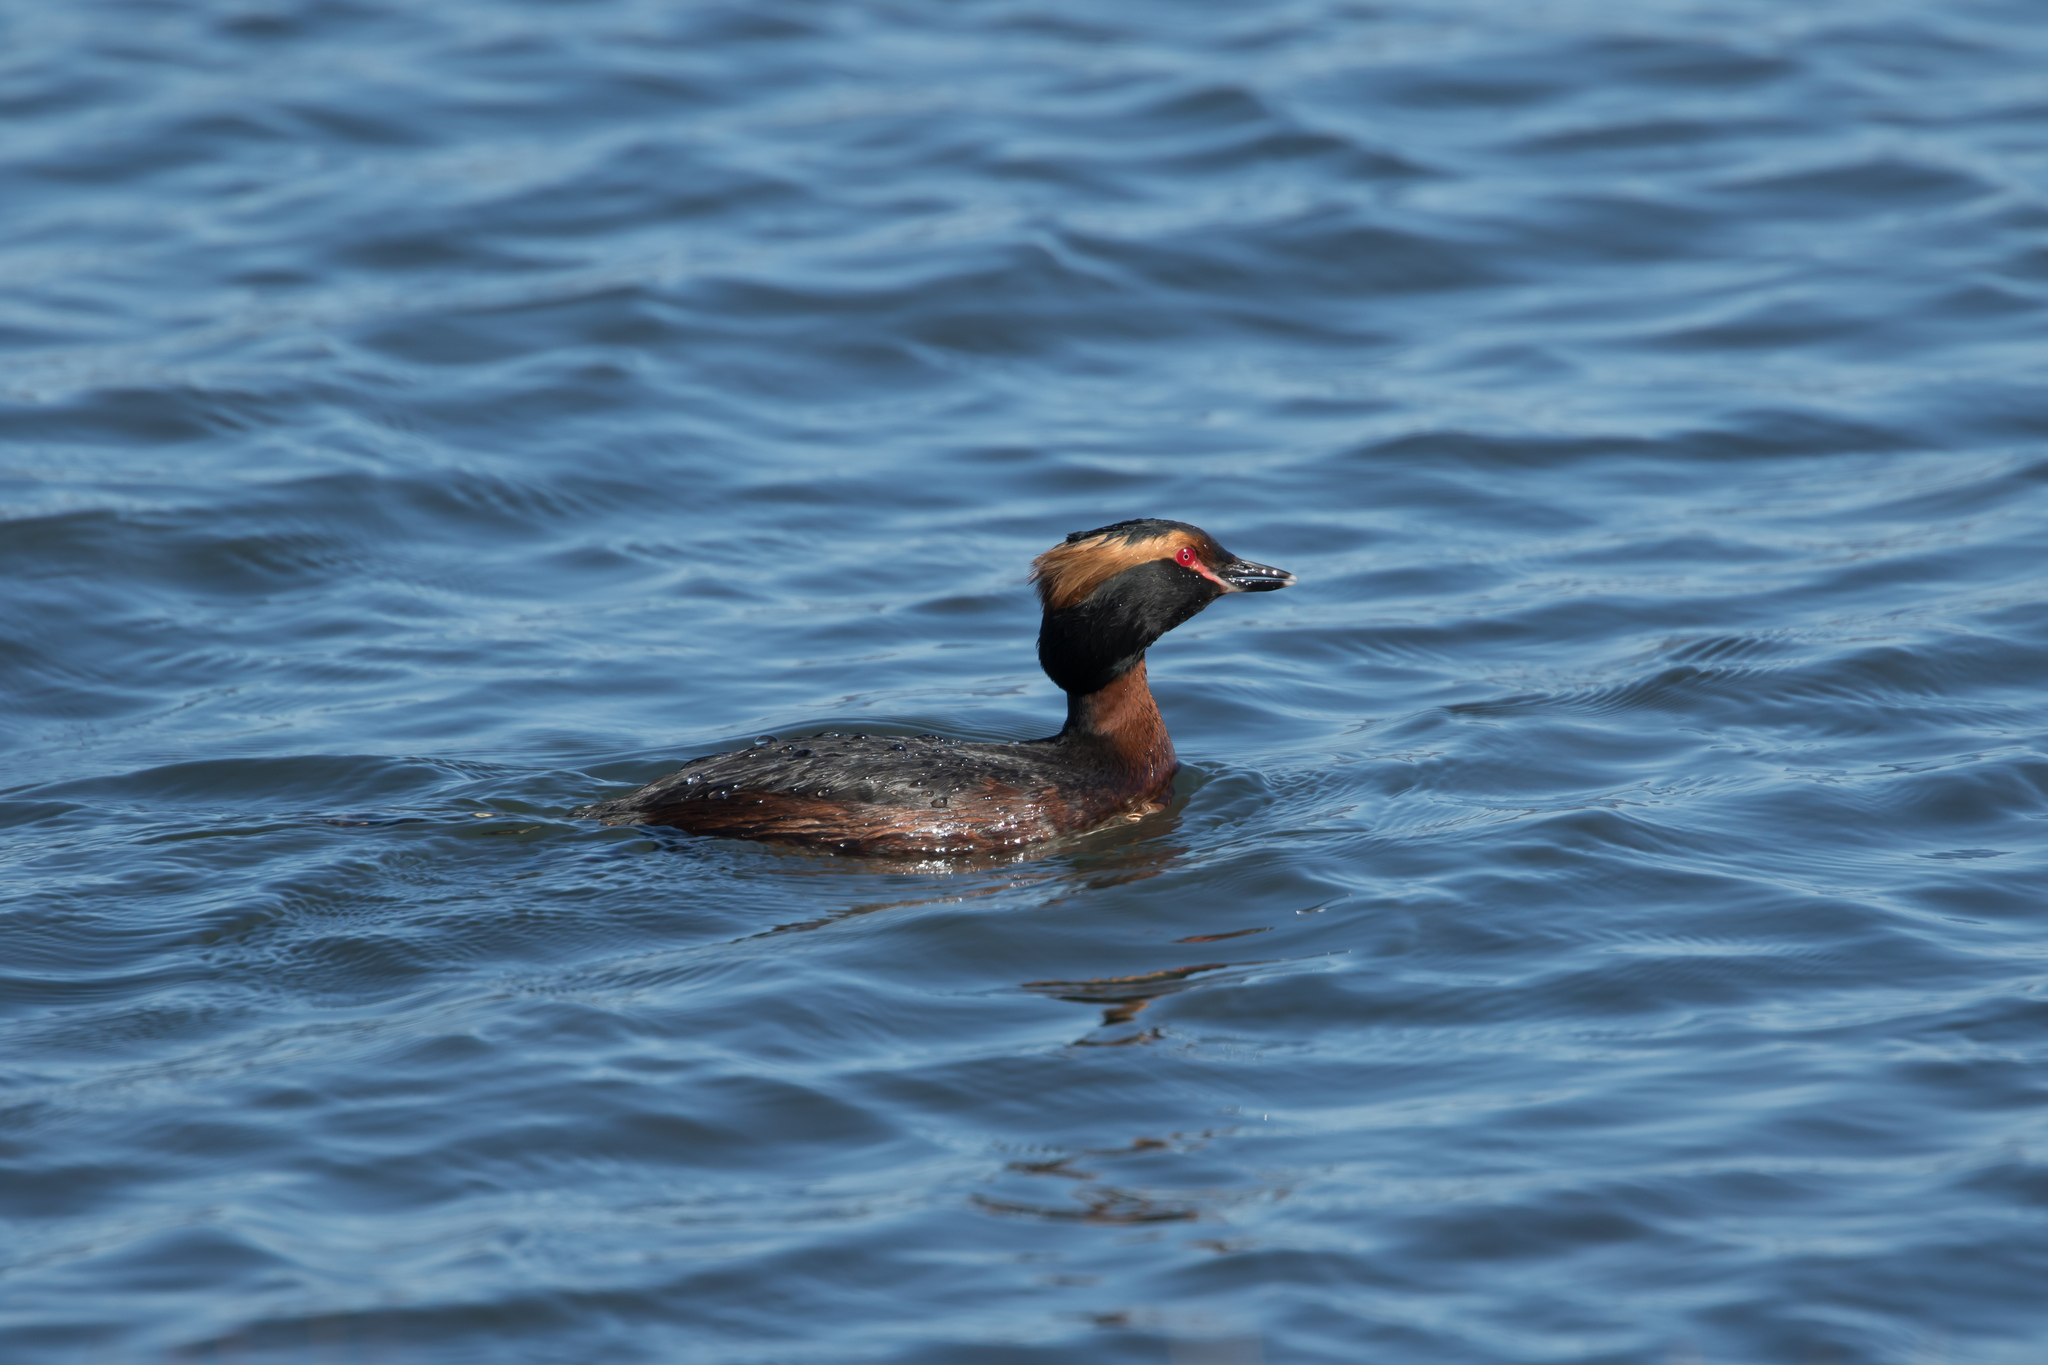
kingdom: Animalia
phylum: Chordata
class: Aves
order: Podicipediformes
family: Podicipedidae
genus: Podiceps
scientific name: Podiceps auritus
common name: Horned grebe
